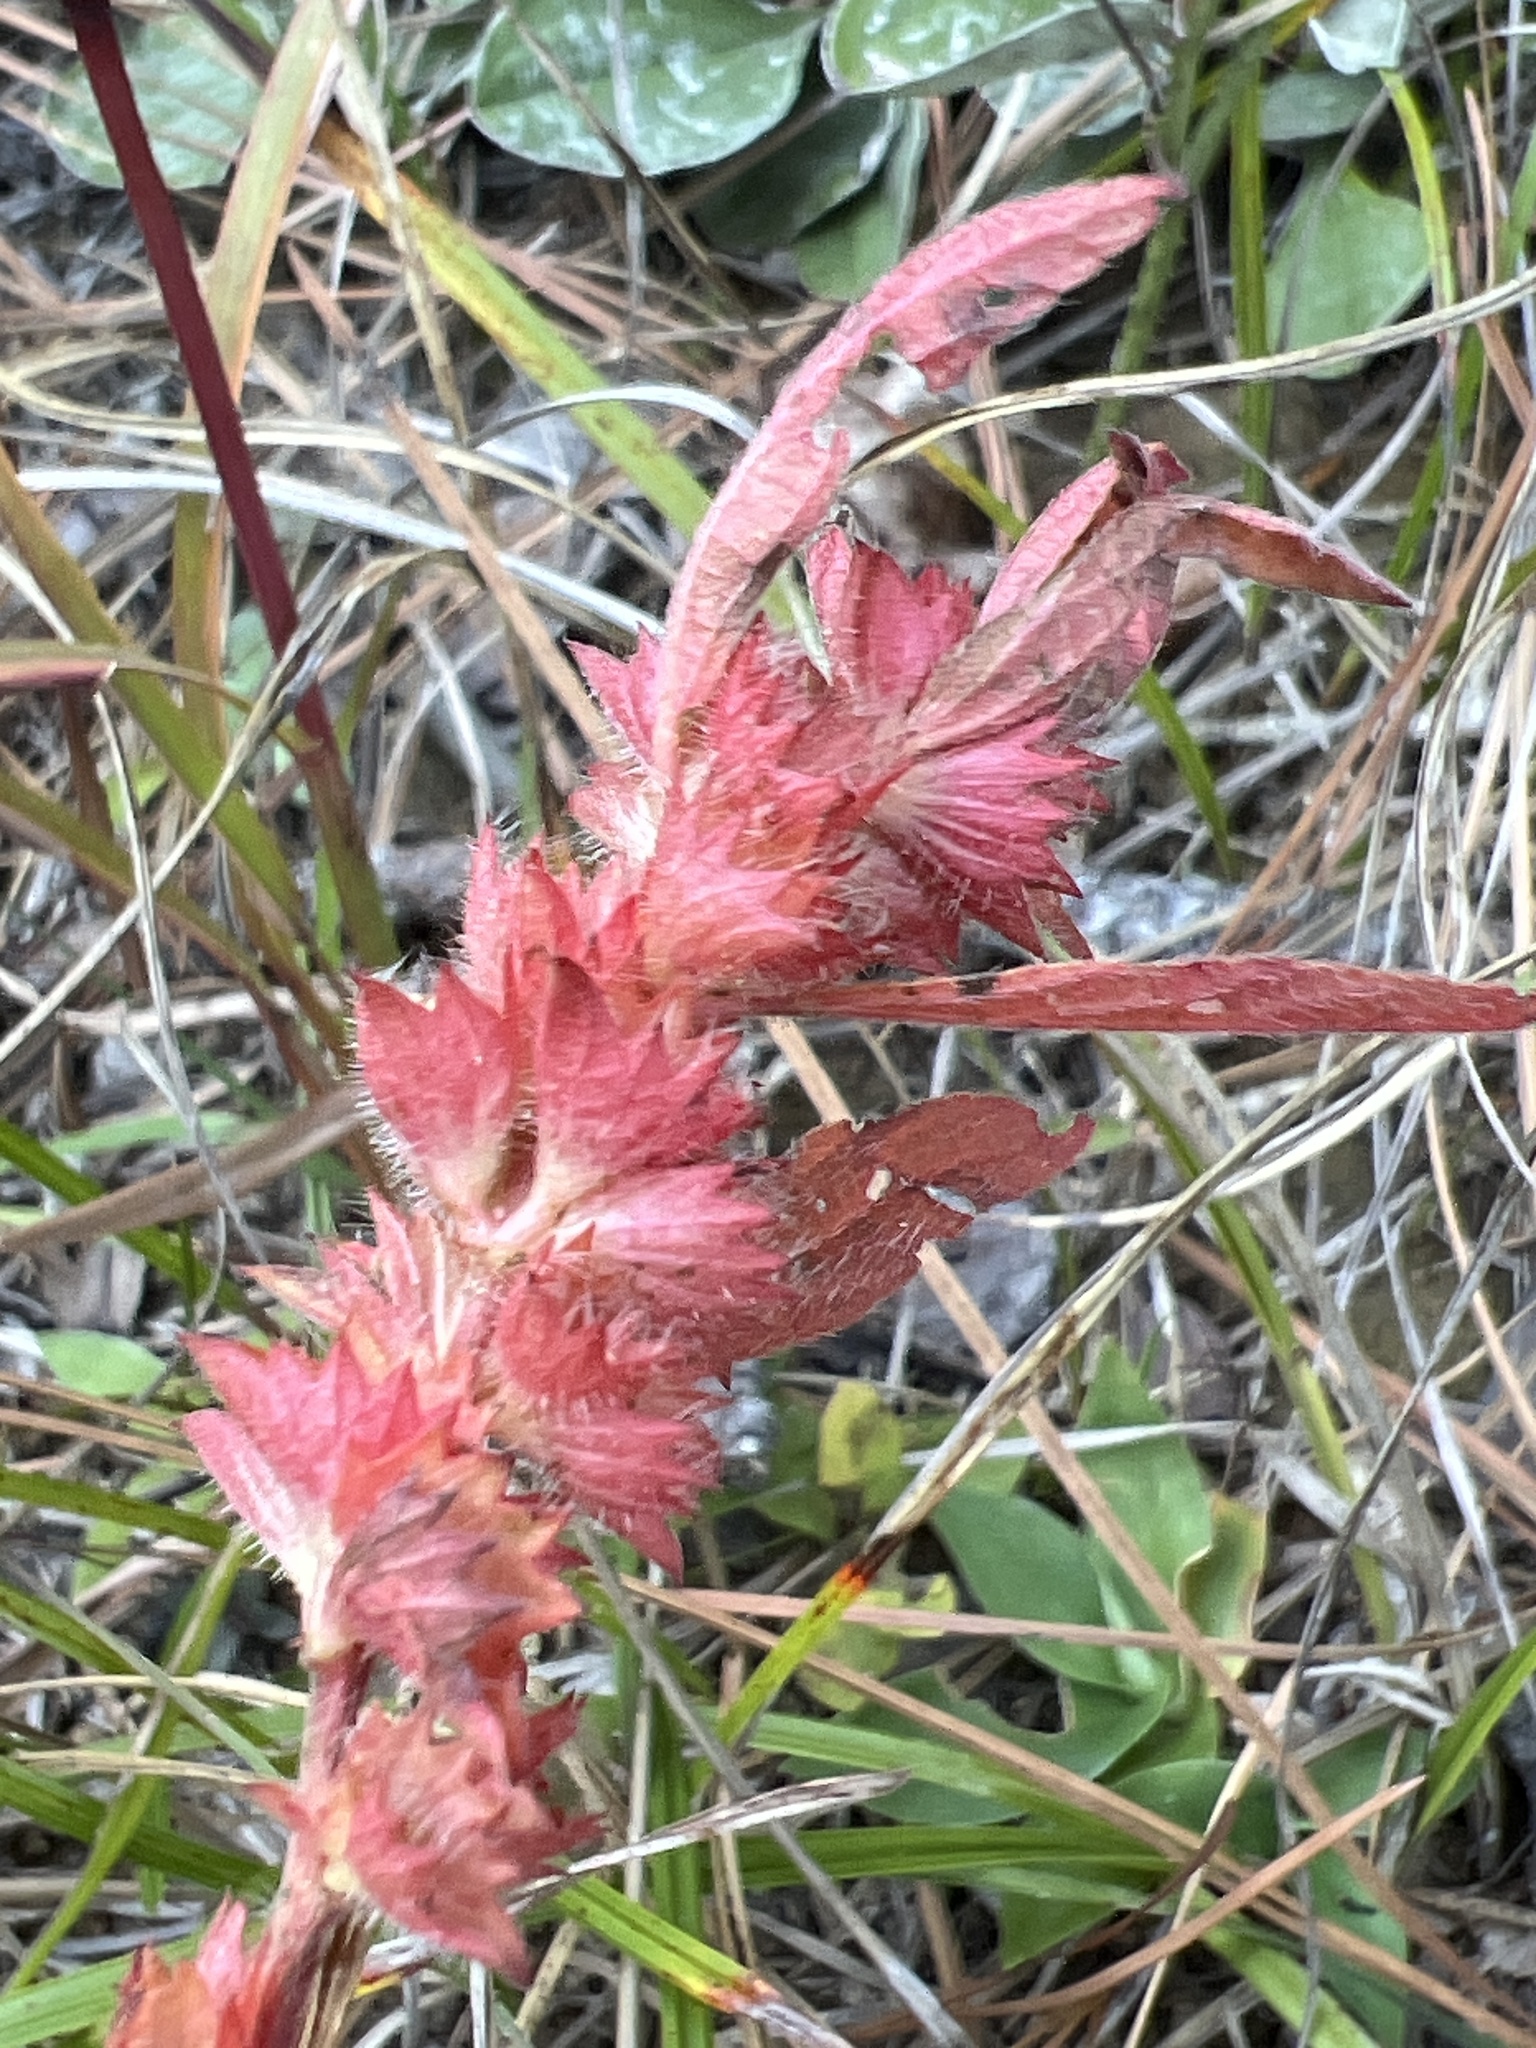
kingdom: Plantae
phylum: Tracheophyta
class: Magnoliopsida
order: Malpighiales
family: Euphorbiaceae
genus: Acalypha
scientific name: Acalypha gracilens
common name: Slender three-seeded mercury
